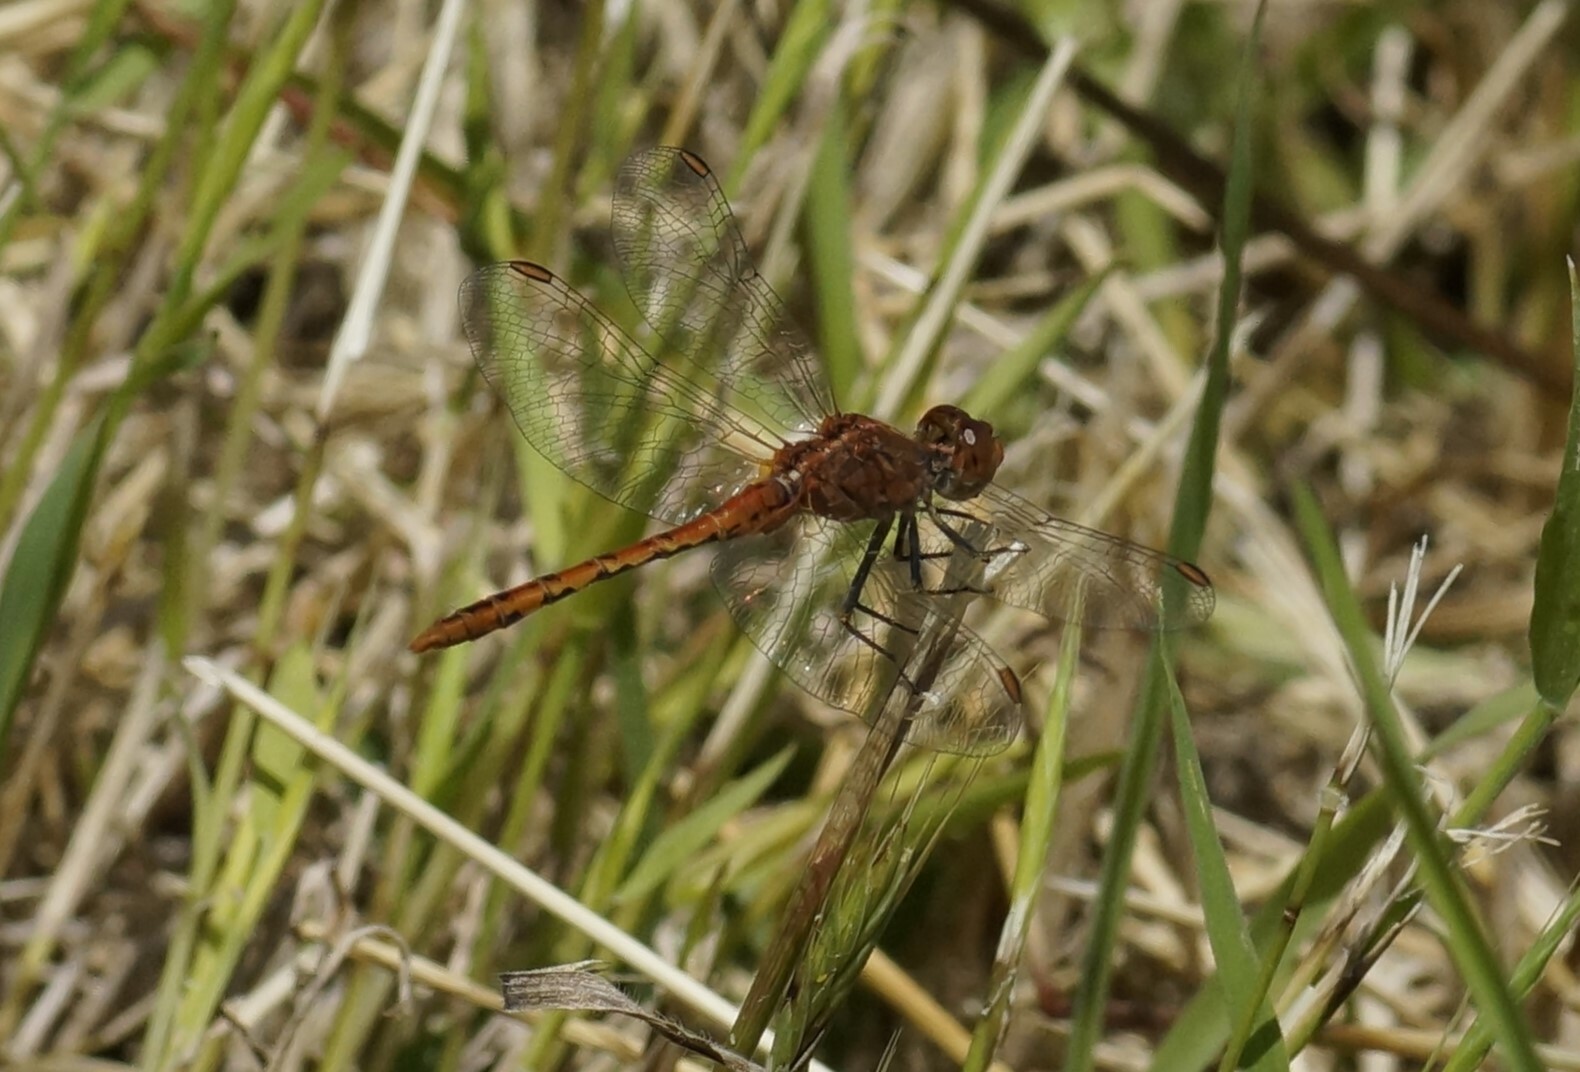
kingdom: Animalia
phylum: Arthropoda
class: Insecta
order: Odonata
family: Libellulidae
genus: Diplacodes
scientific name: Diplacodes bipunctata
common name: Red percher dragonfly
